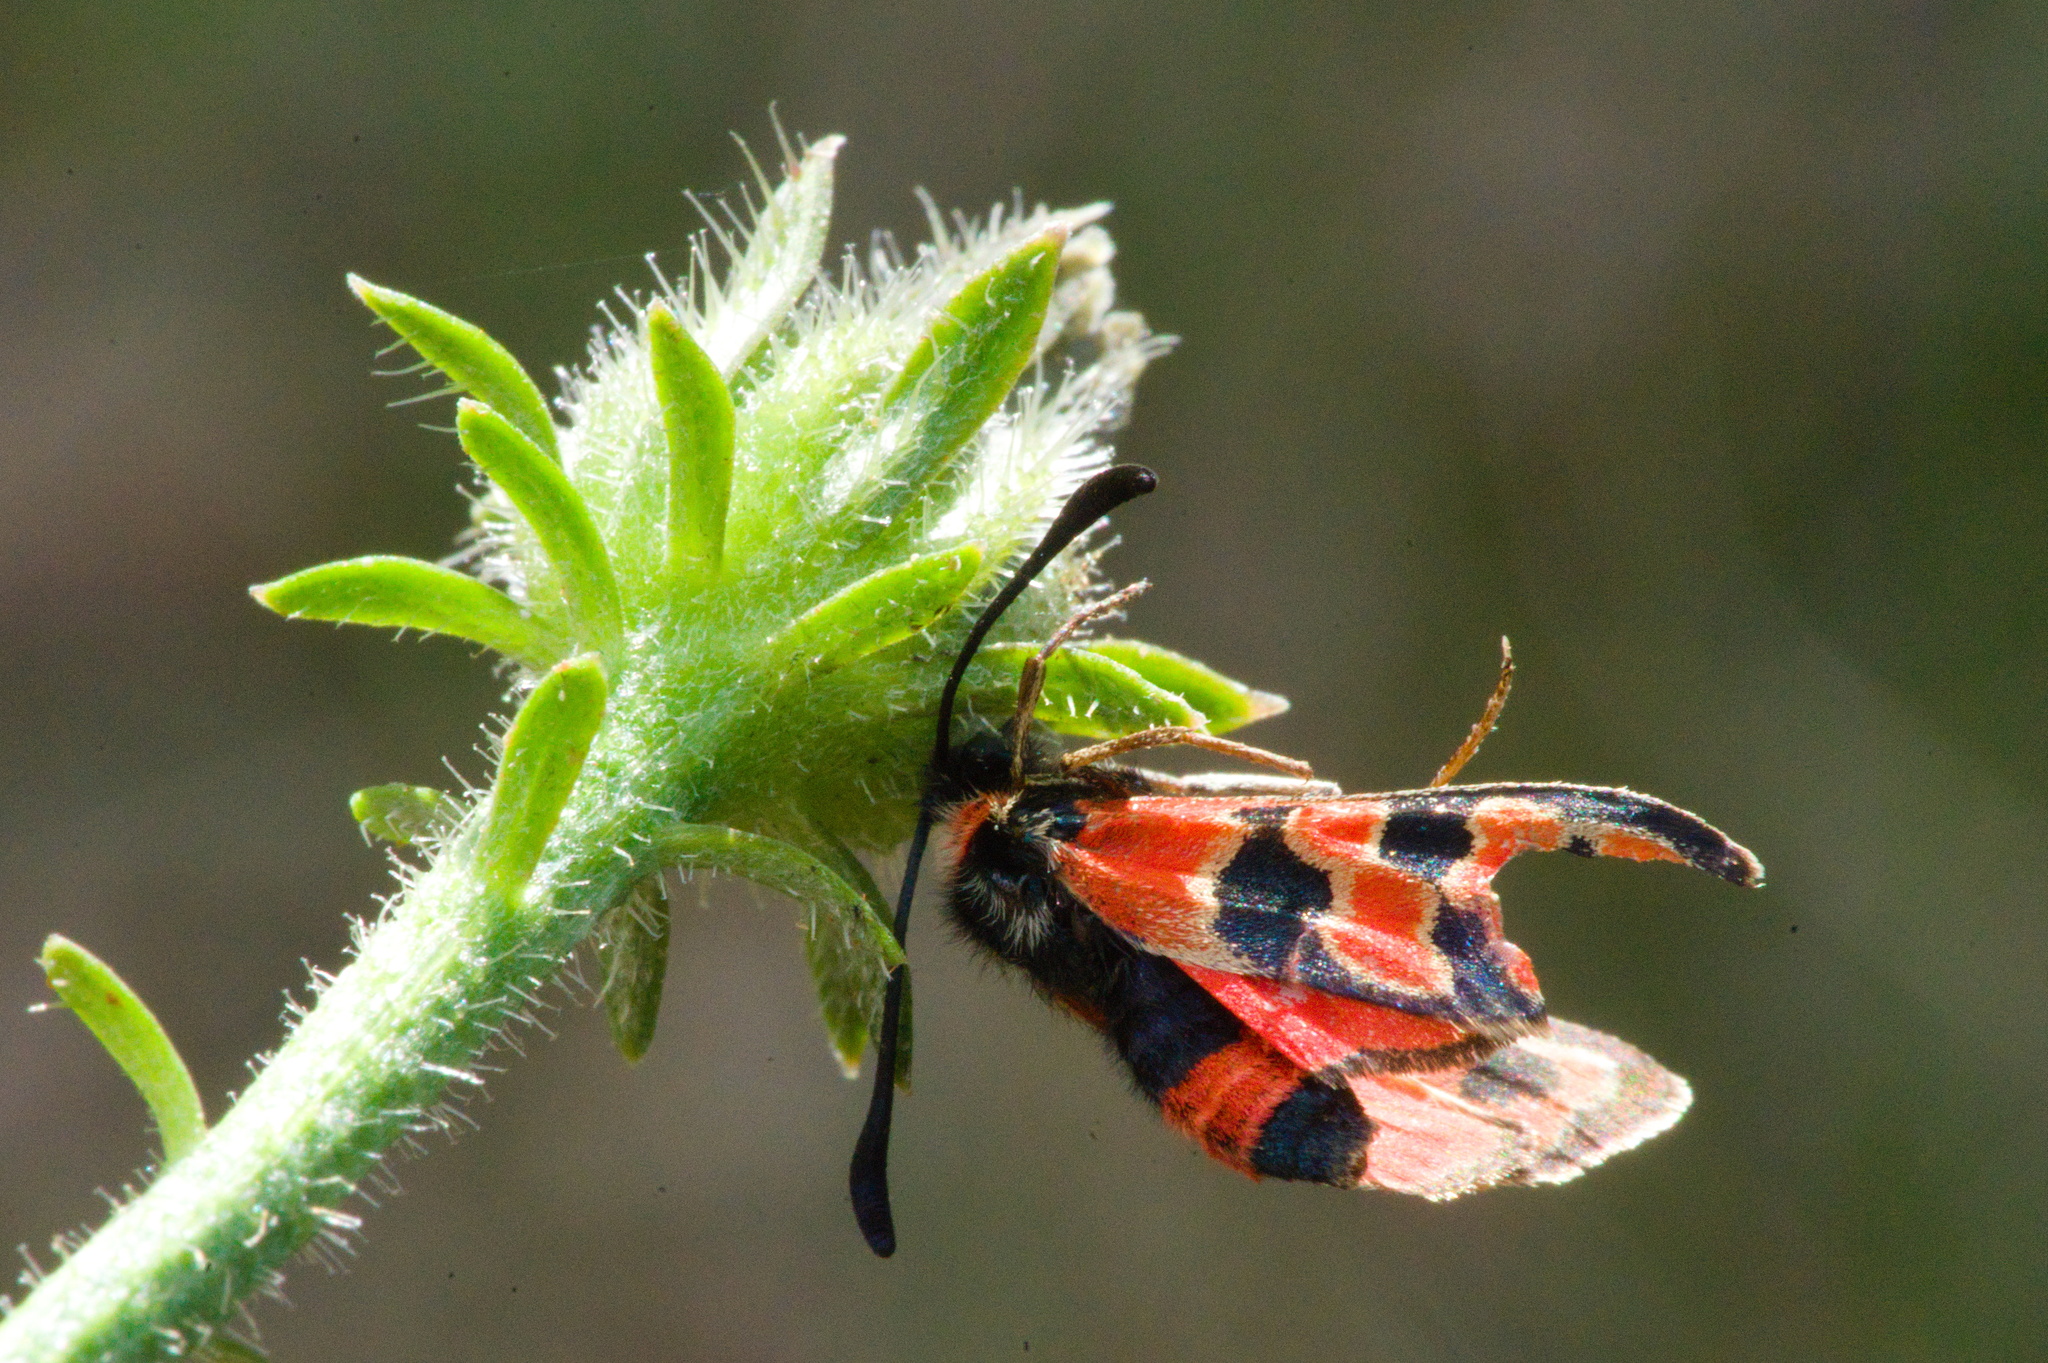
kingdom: Animalia
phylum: Arthropoda
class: Insecta
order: Lepidoptera
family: Zygaenidae
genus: Zygaena
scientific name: Zygaena fausta
